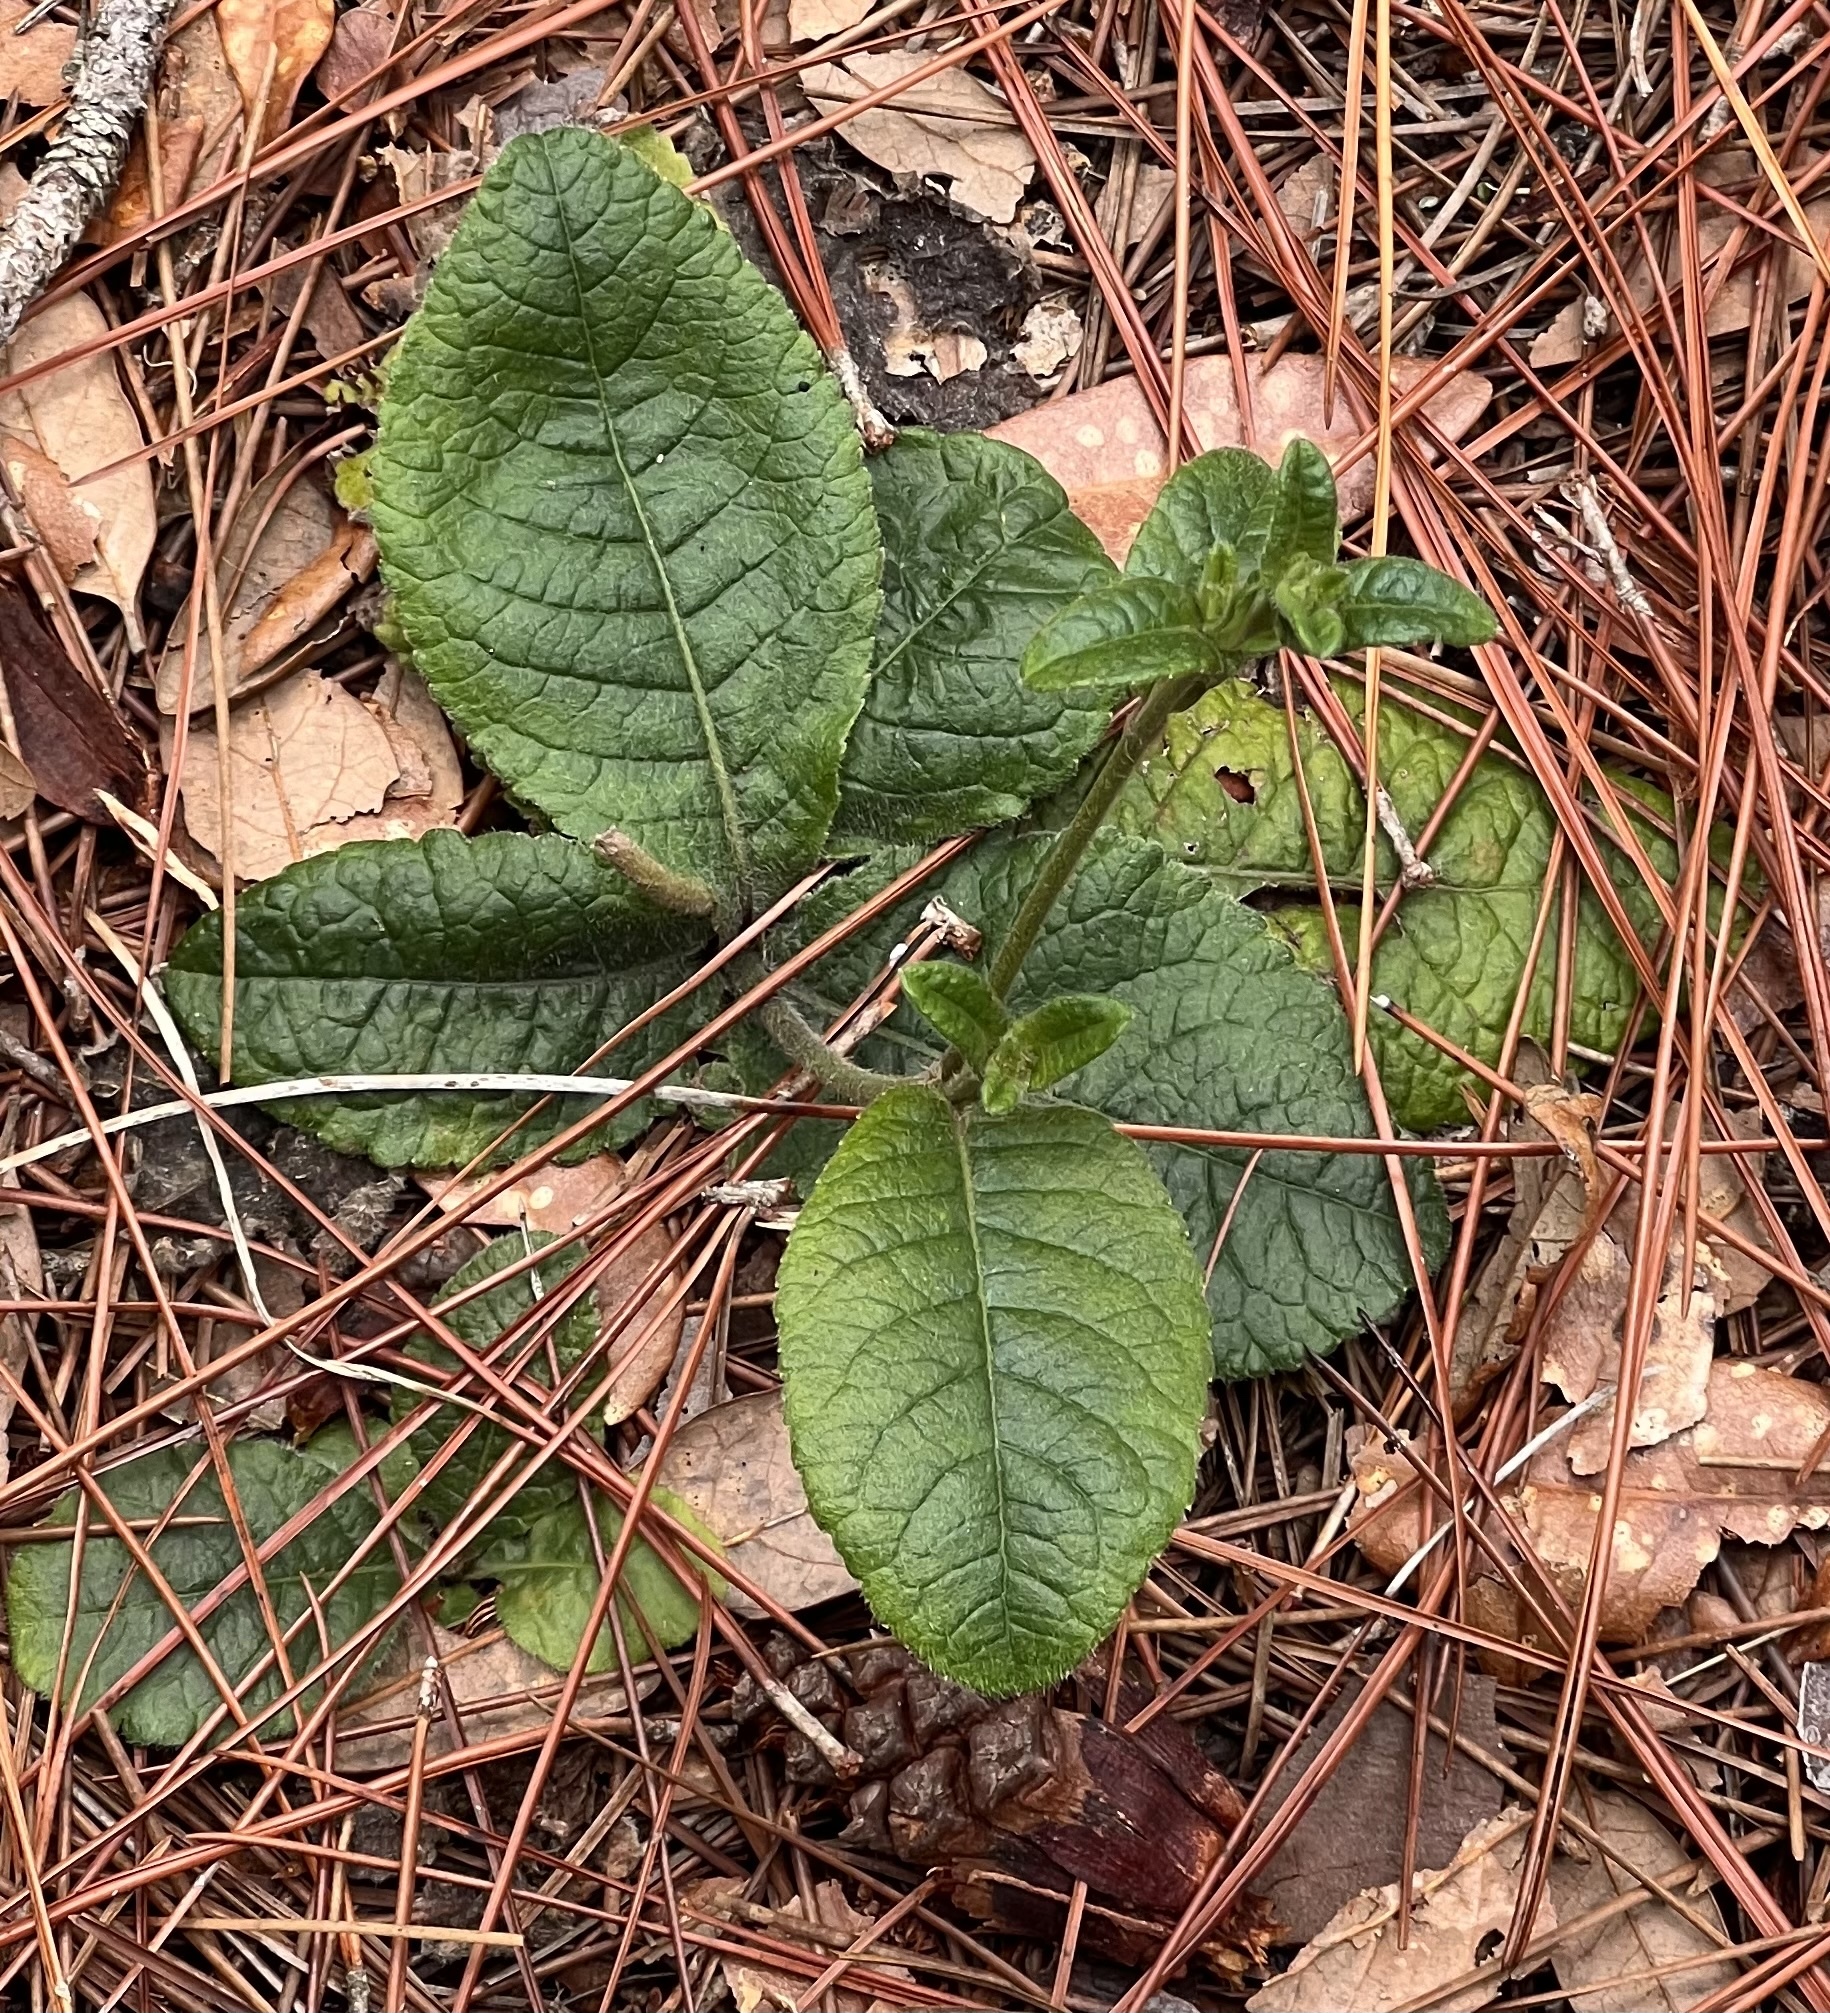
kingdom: Plantae
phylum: Tracheophyta
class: Magnoliopsida
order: Asterales
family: Asteraceae
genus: Elephantopus
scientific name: Elephantopus tomentosus
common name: Tobacco-weed
